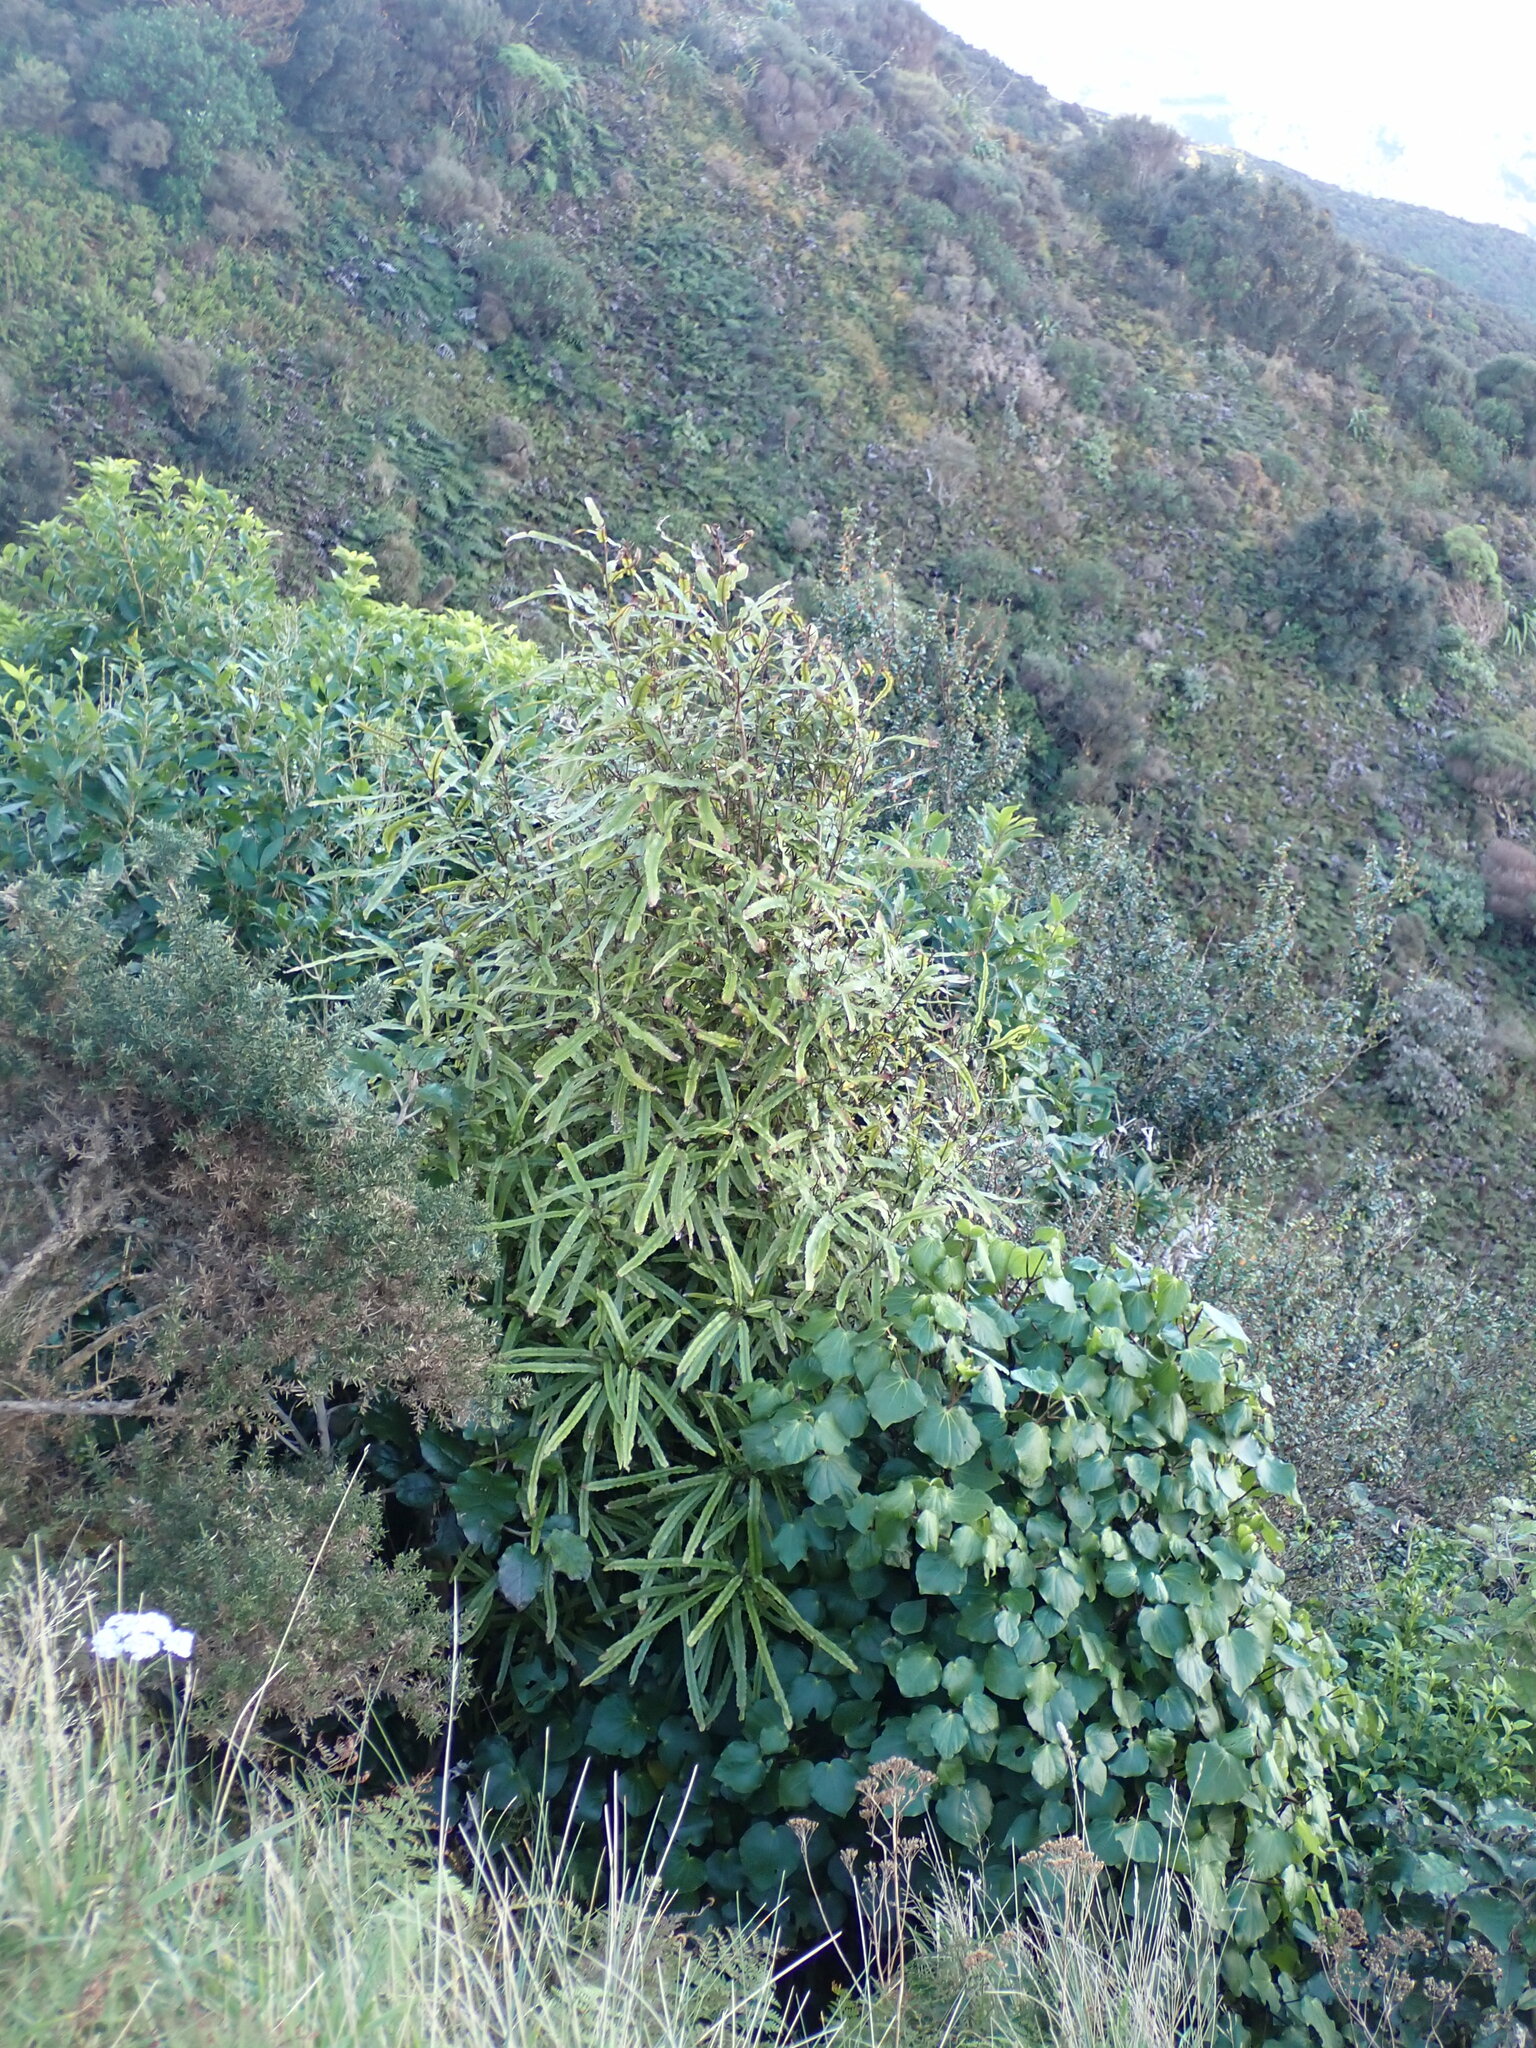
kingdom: Plantae
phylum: Tracheophyta
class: Magnoliopsida
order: Proteales
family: Proteaceae
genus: Knightia
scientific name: Knightia excelsa
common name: New zealand-honeysuckle
